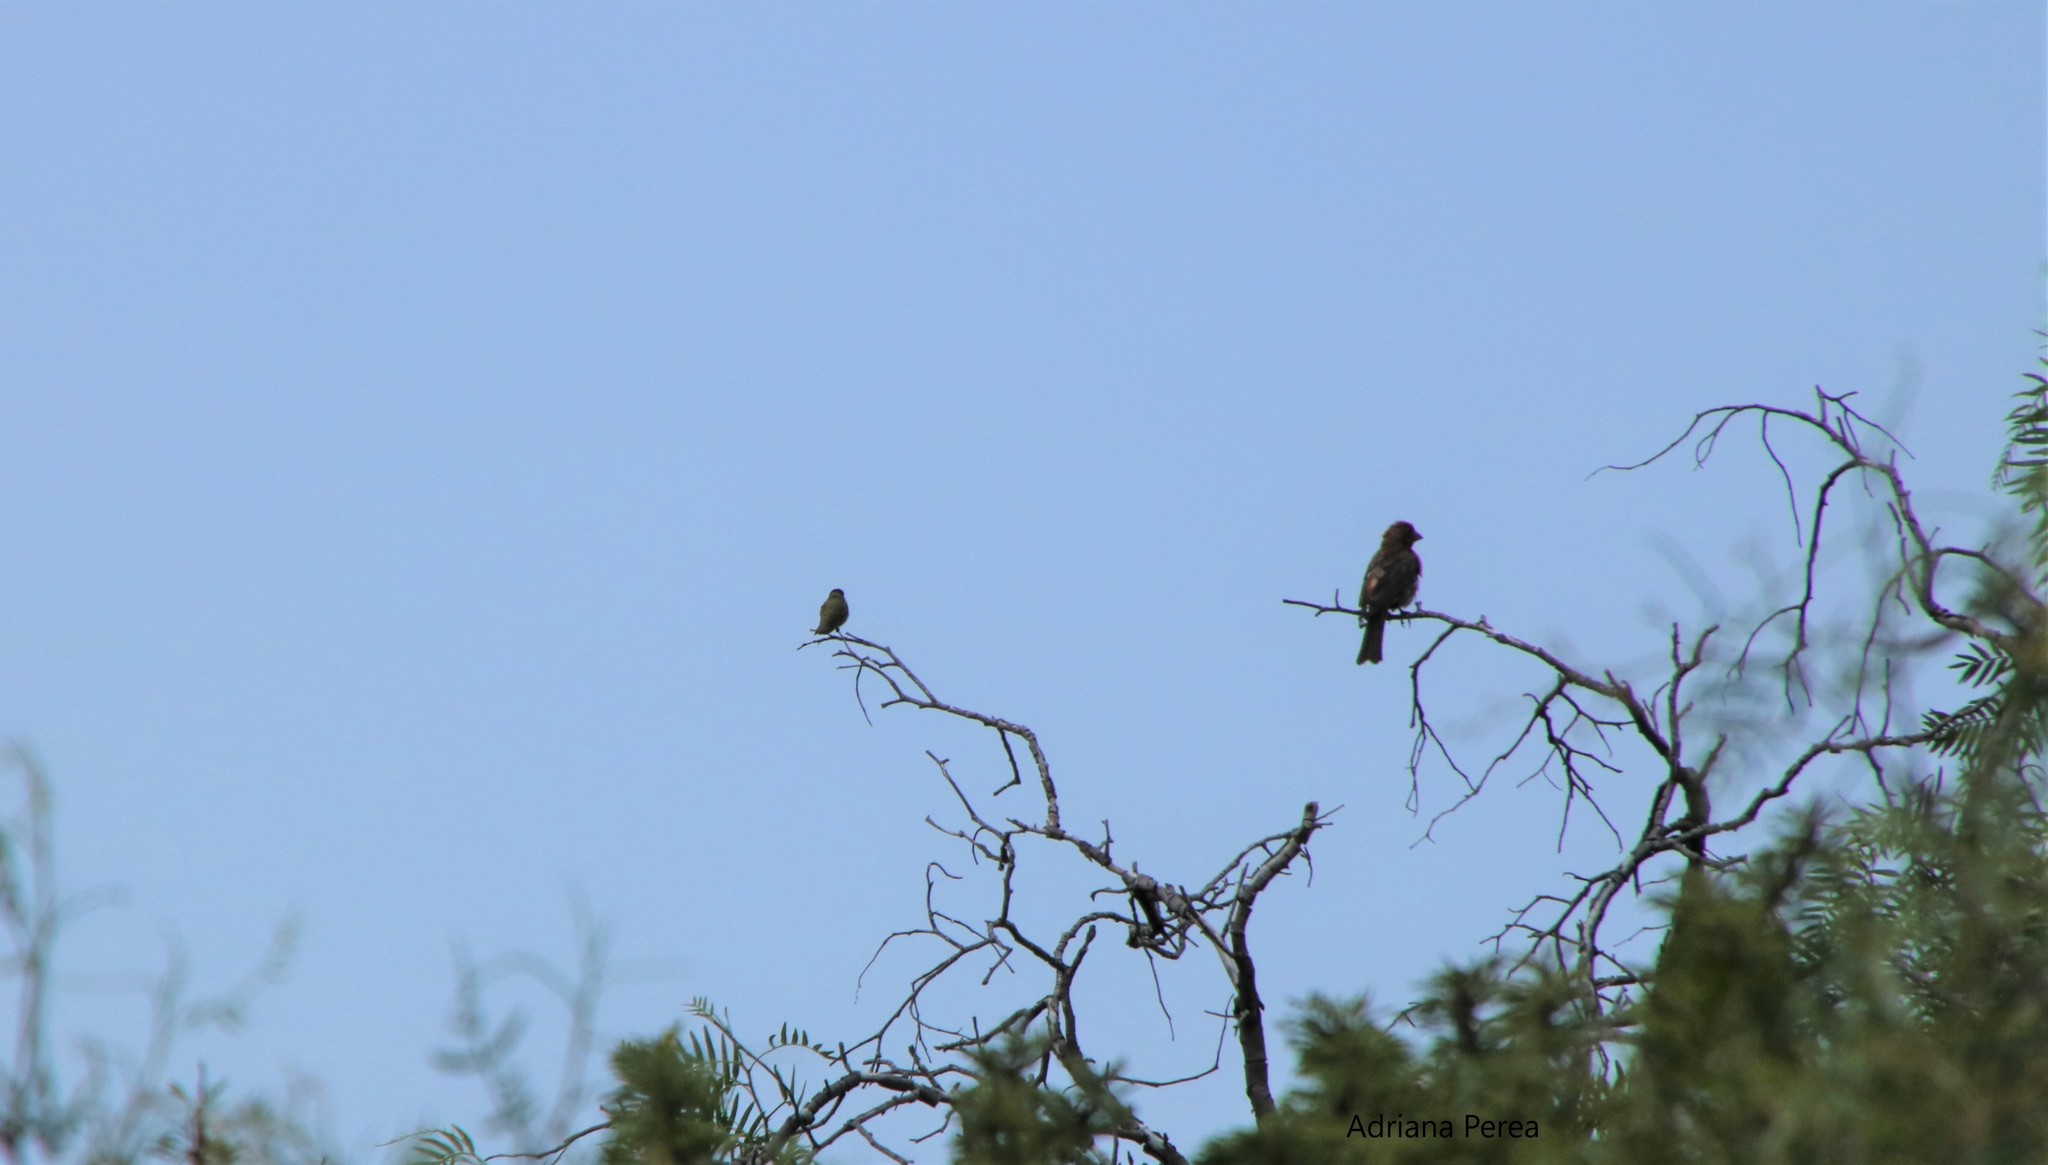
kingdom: Animalia
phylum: Chordata
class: Aves
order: Apodiformes
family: Trochilidae
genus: Calothorax
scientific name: Calothorax lucifer
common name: Lucifer sheartail
